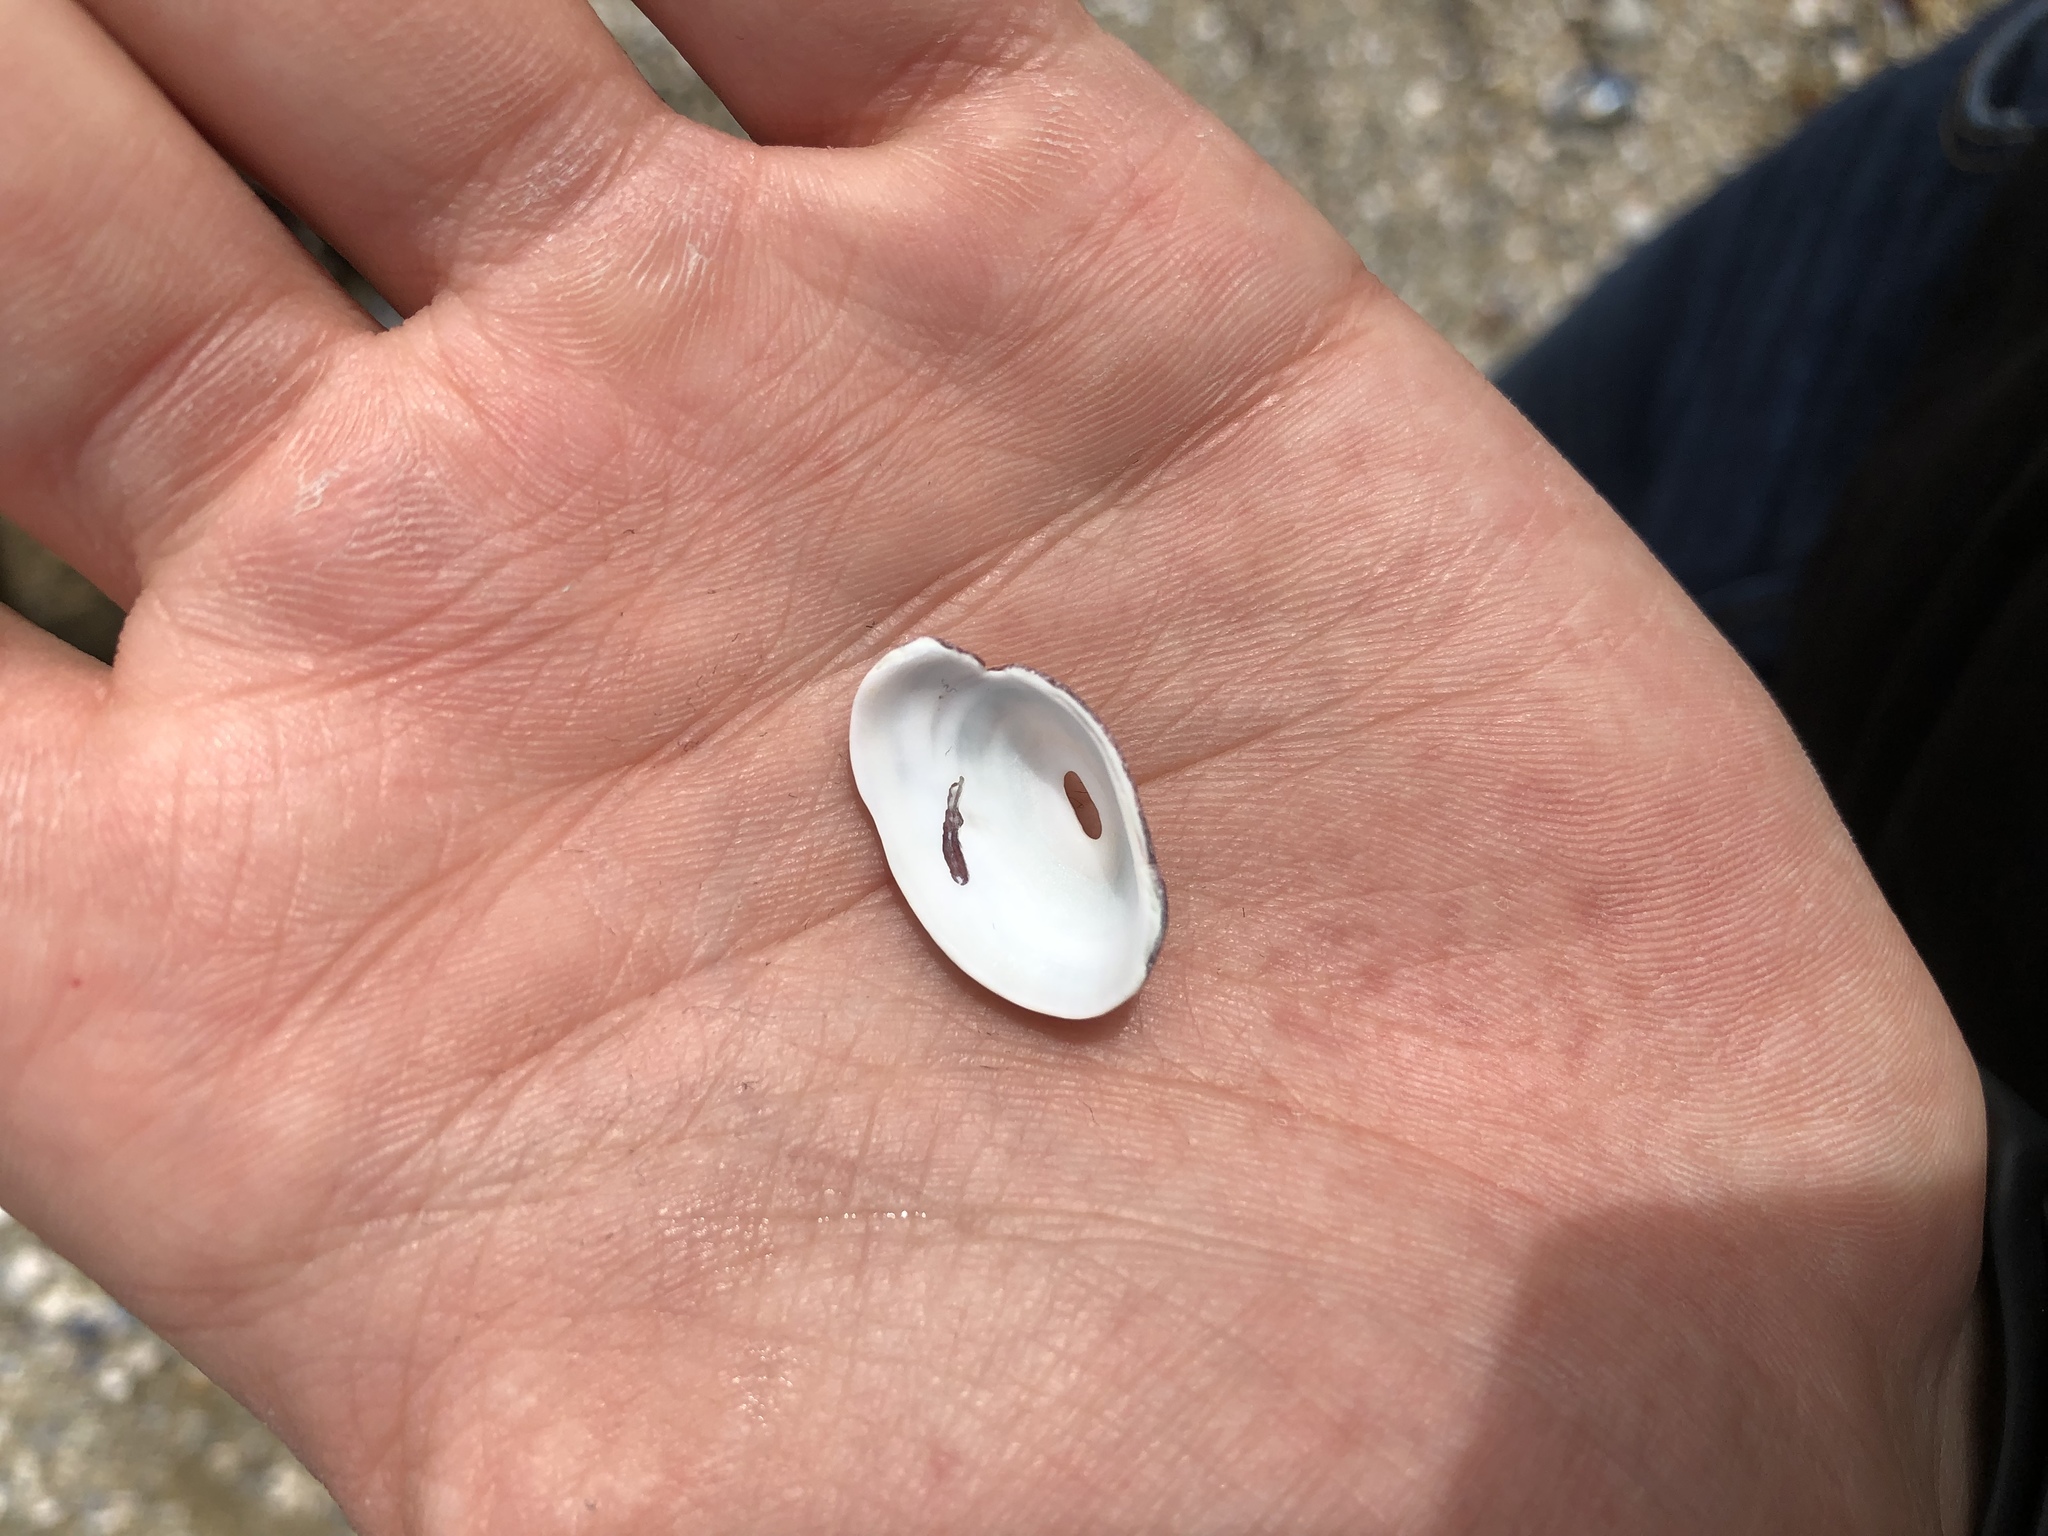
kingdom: Animalia
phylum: Mollusca
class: Gastropoda
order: Lepetellida
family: Fissurellidae
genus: Fissurella
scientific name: Fissurella volcano
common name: Volcano keyhole limpet
